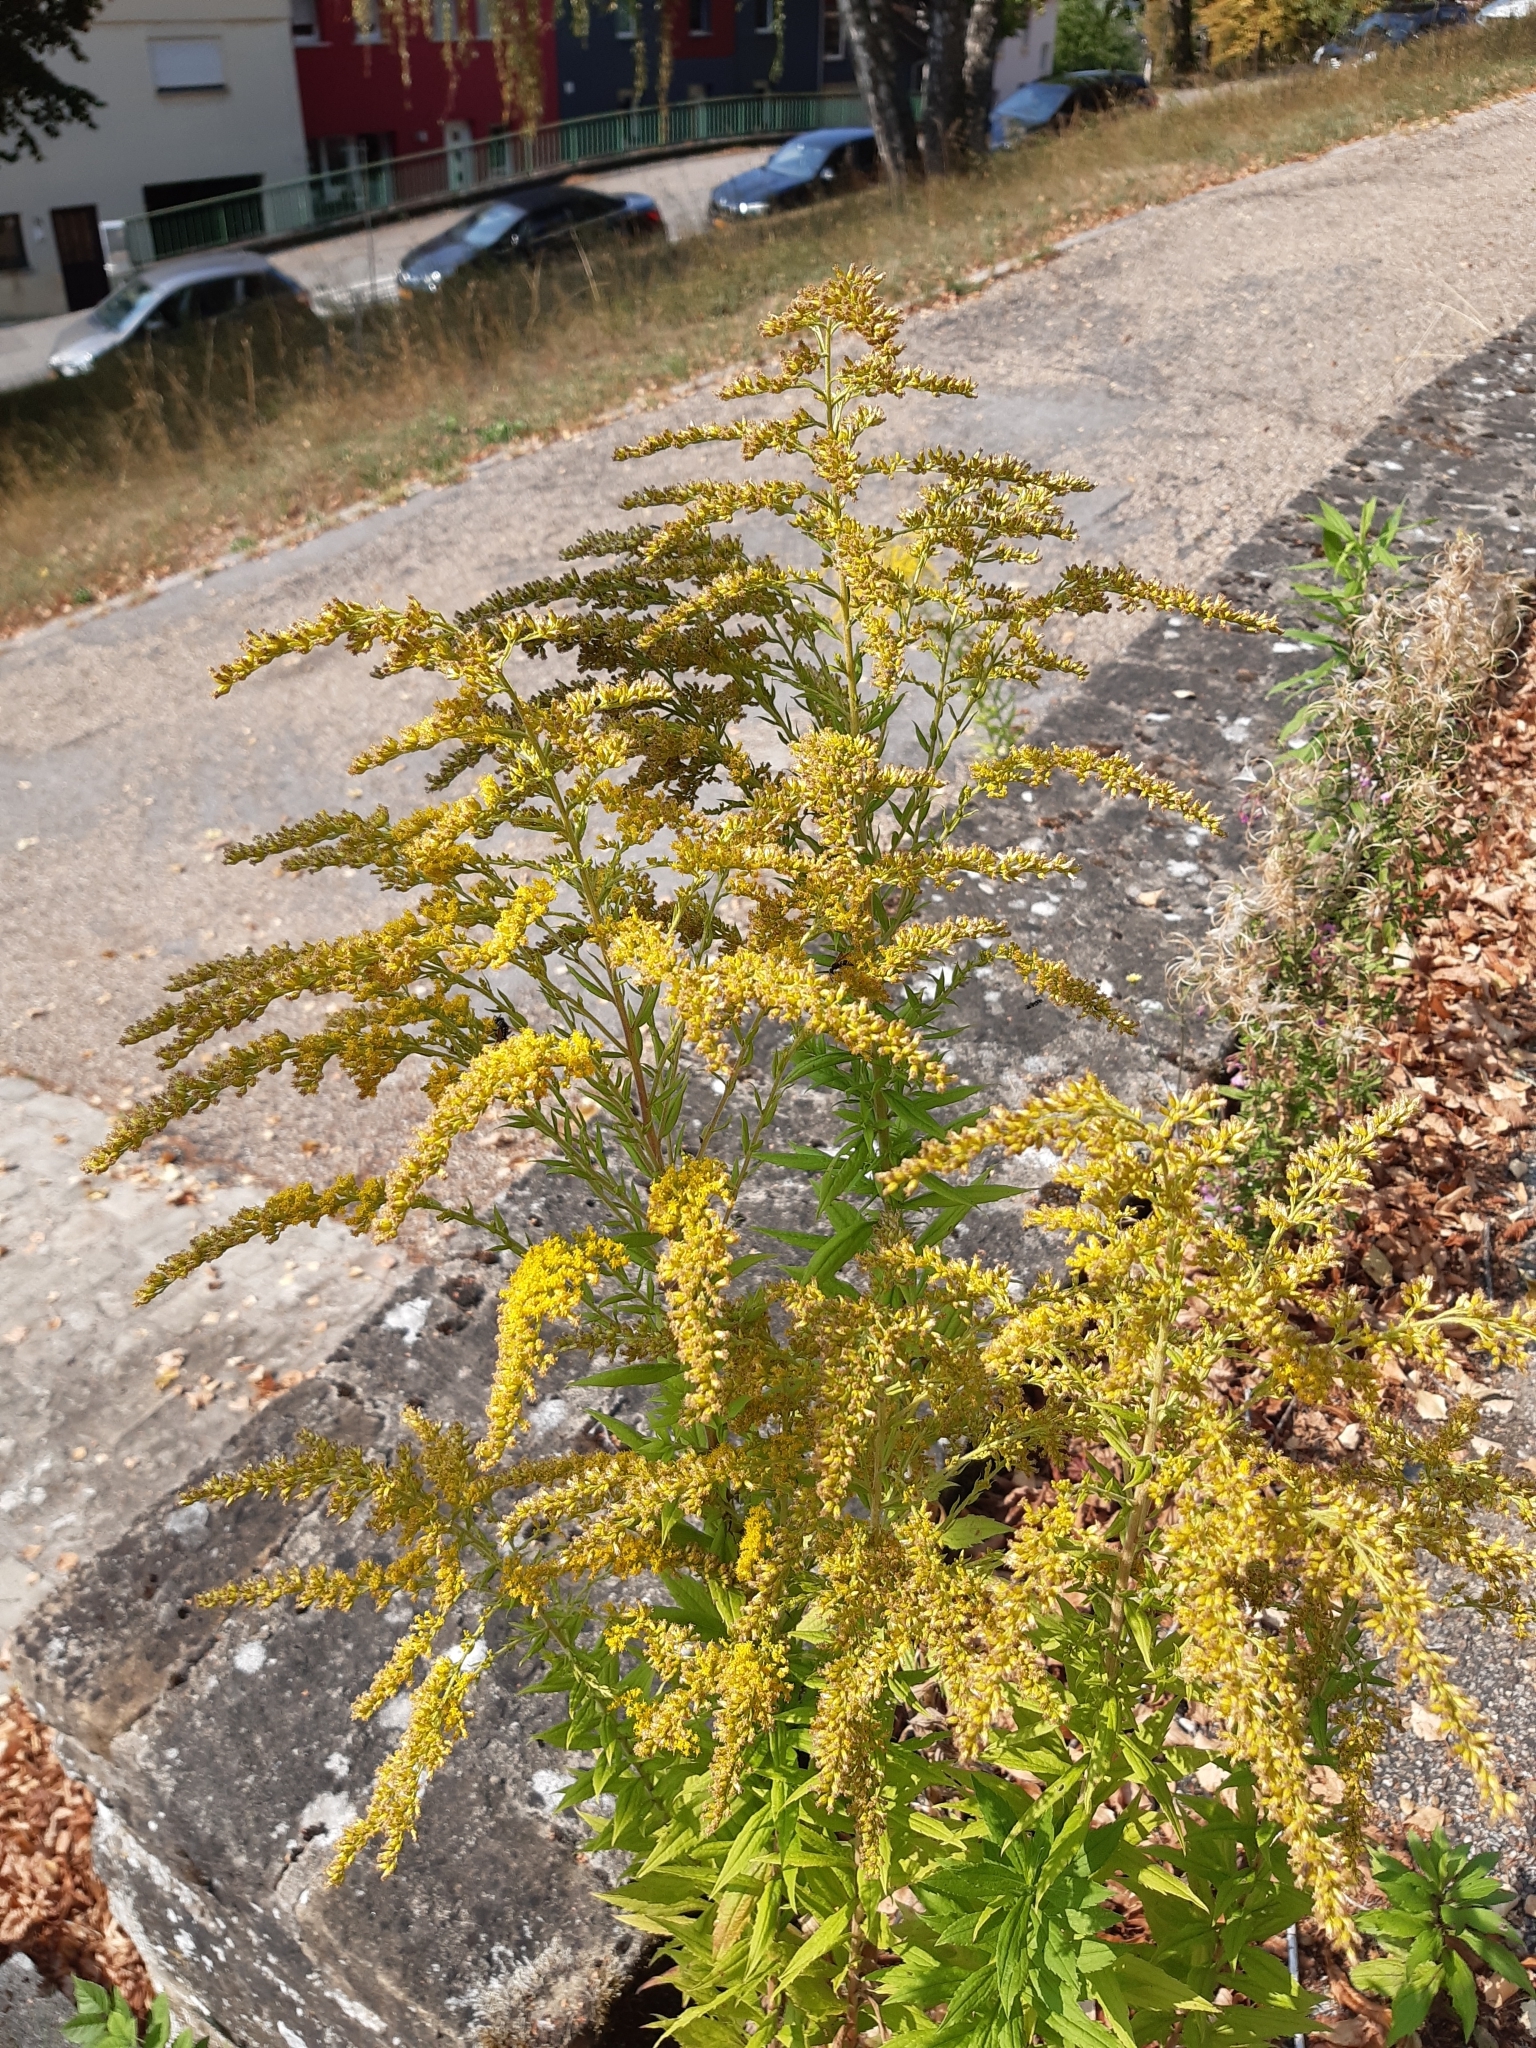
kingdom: Plantae
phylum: Tracheophyta
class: Magnoliopsida
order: Asterales
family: Asteraceae
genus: Solidago
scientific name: Solidago canadensis
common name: Canada goldenrod
